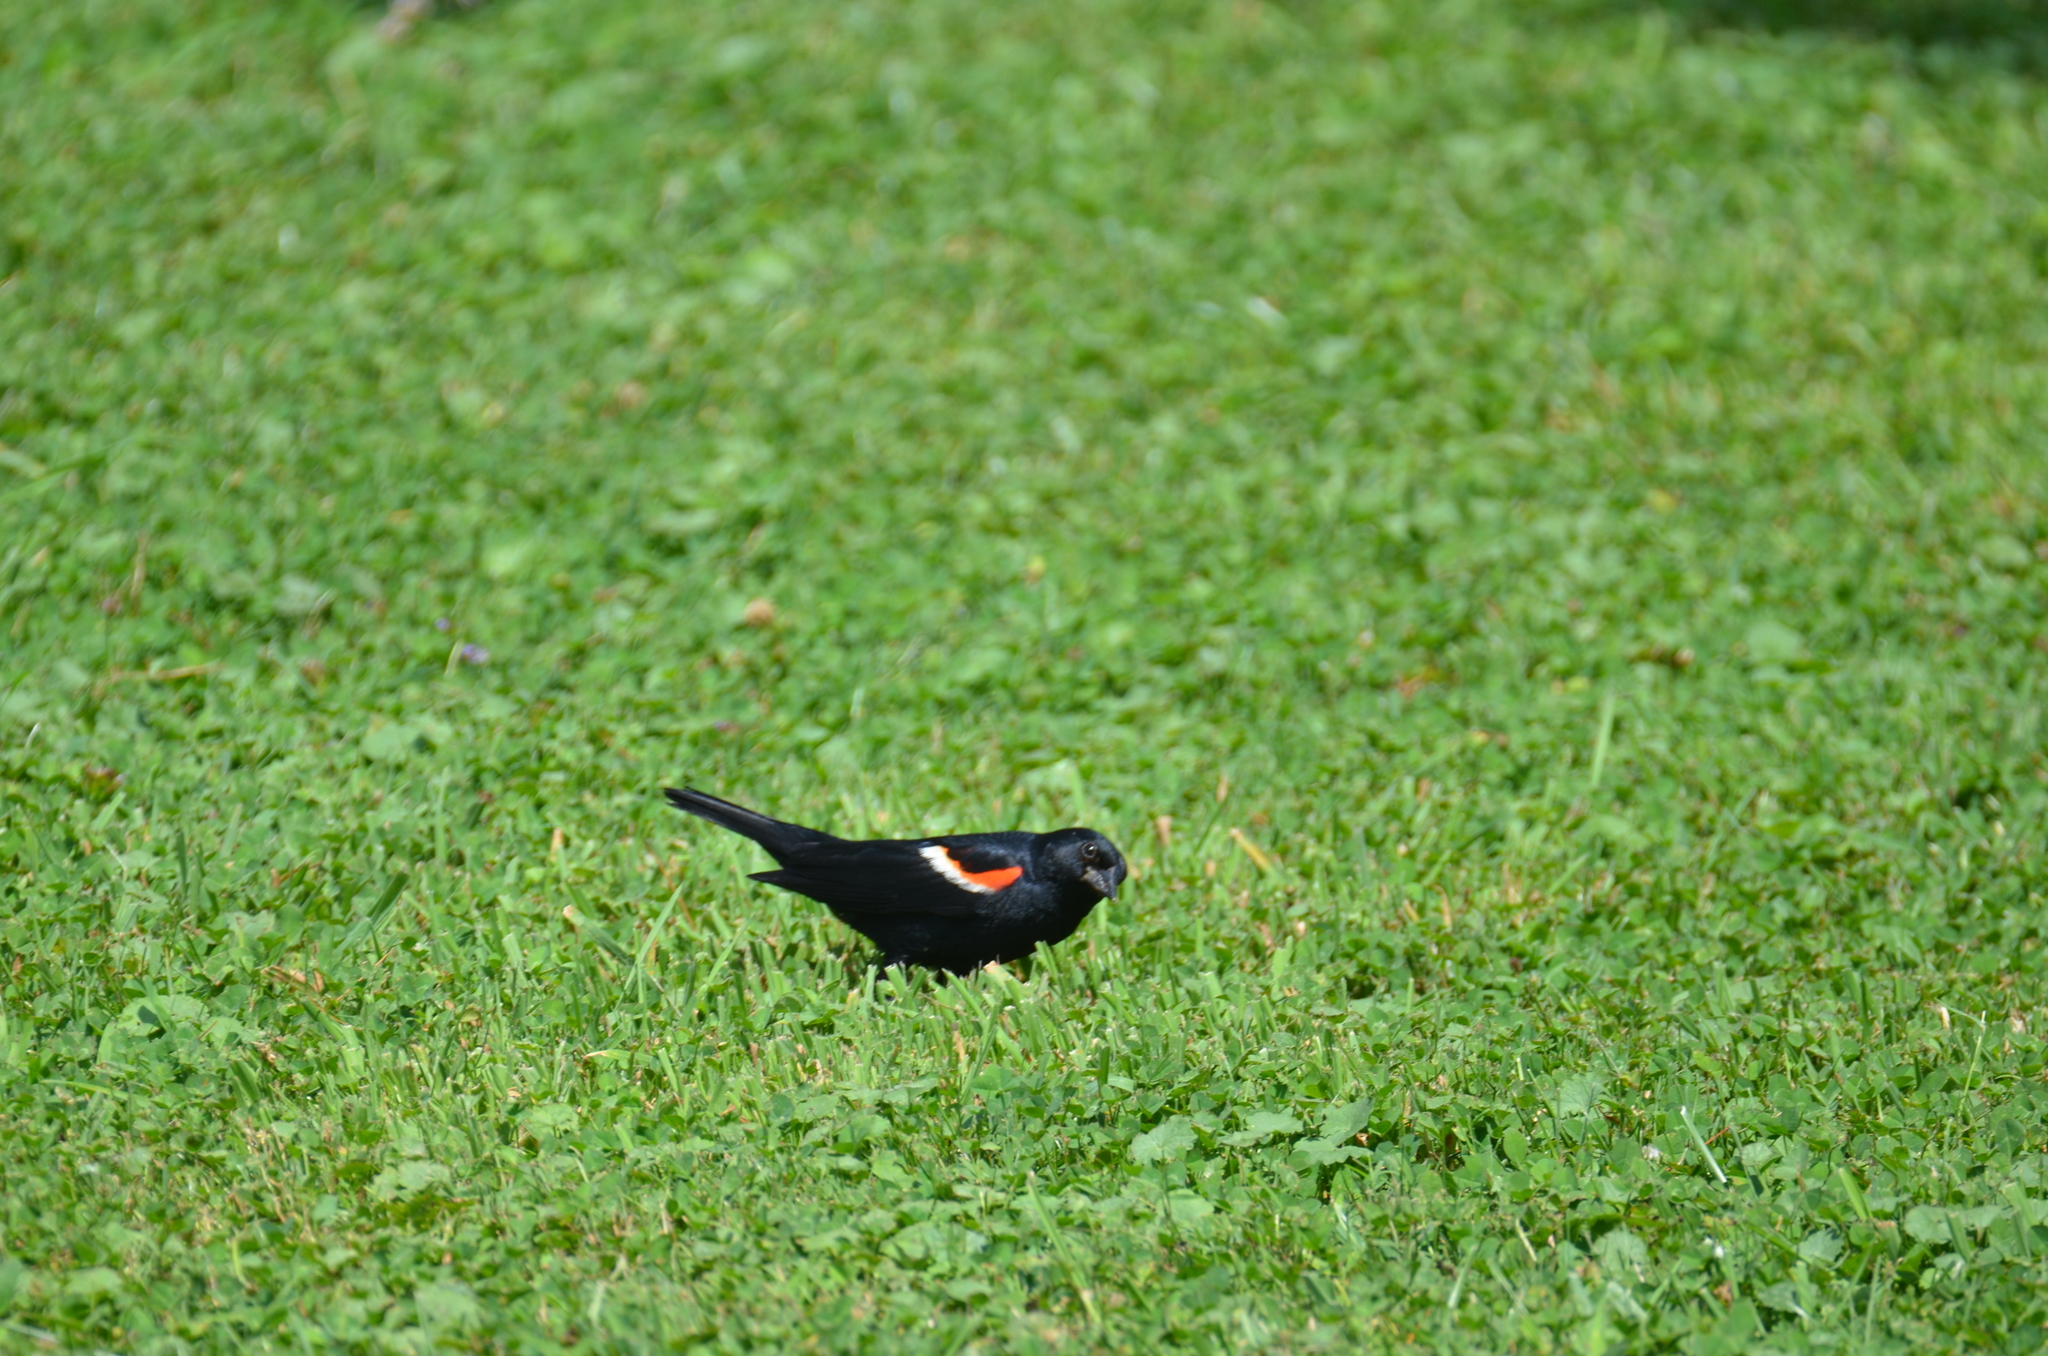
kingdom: Animalia
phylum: Chordata
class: Aves
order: Passeriformes
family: Icteridae
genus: Agelaius
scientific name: Agelaius phoeniceus
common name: Red-winged blackbird
